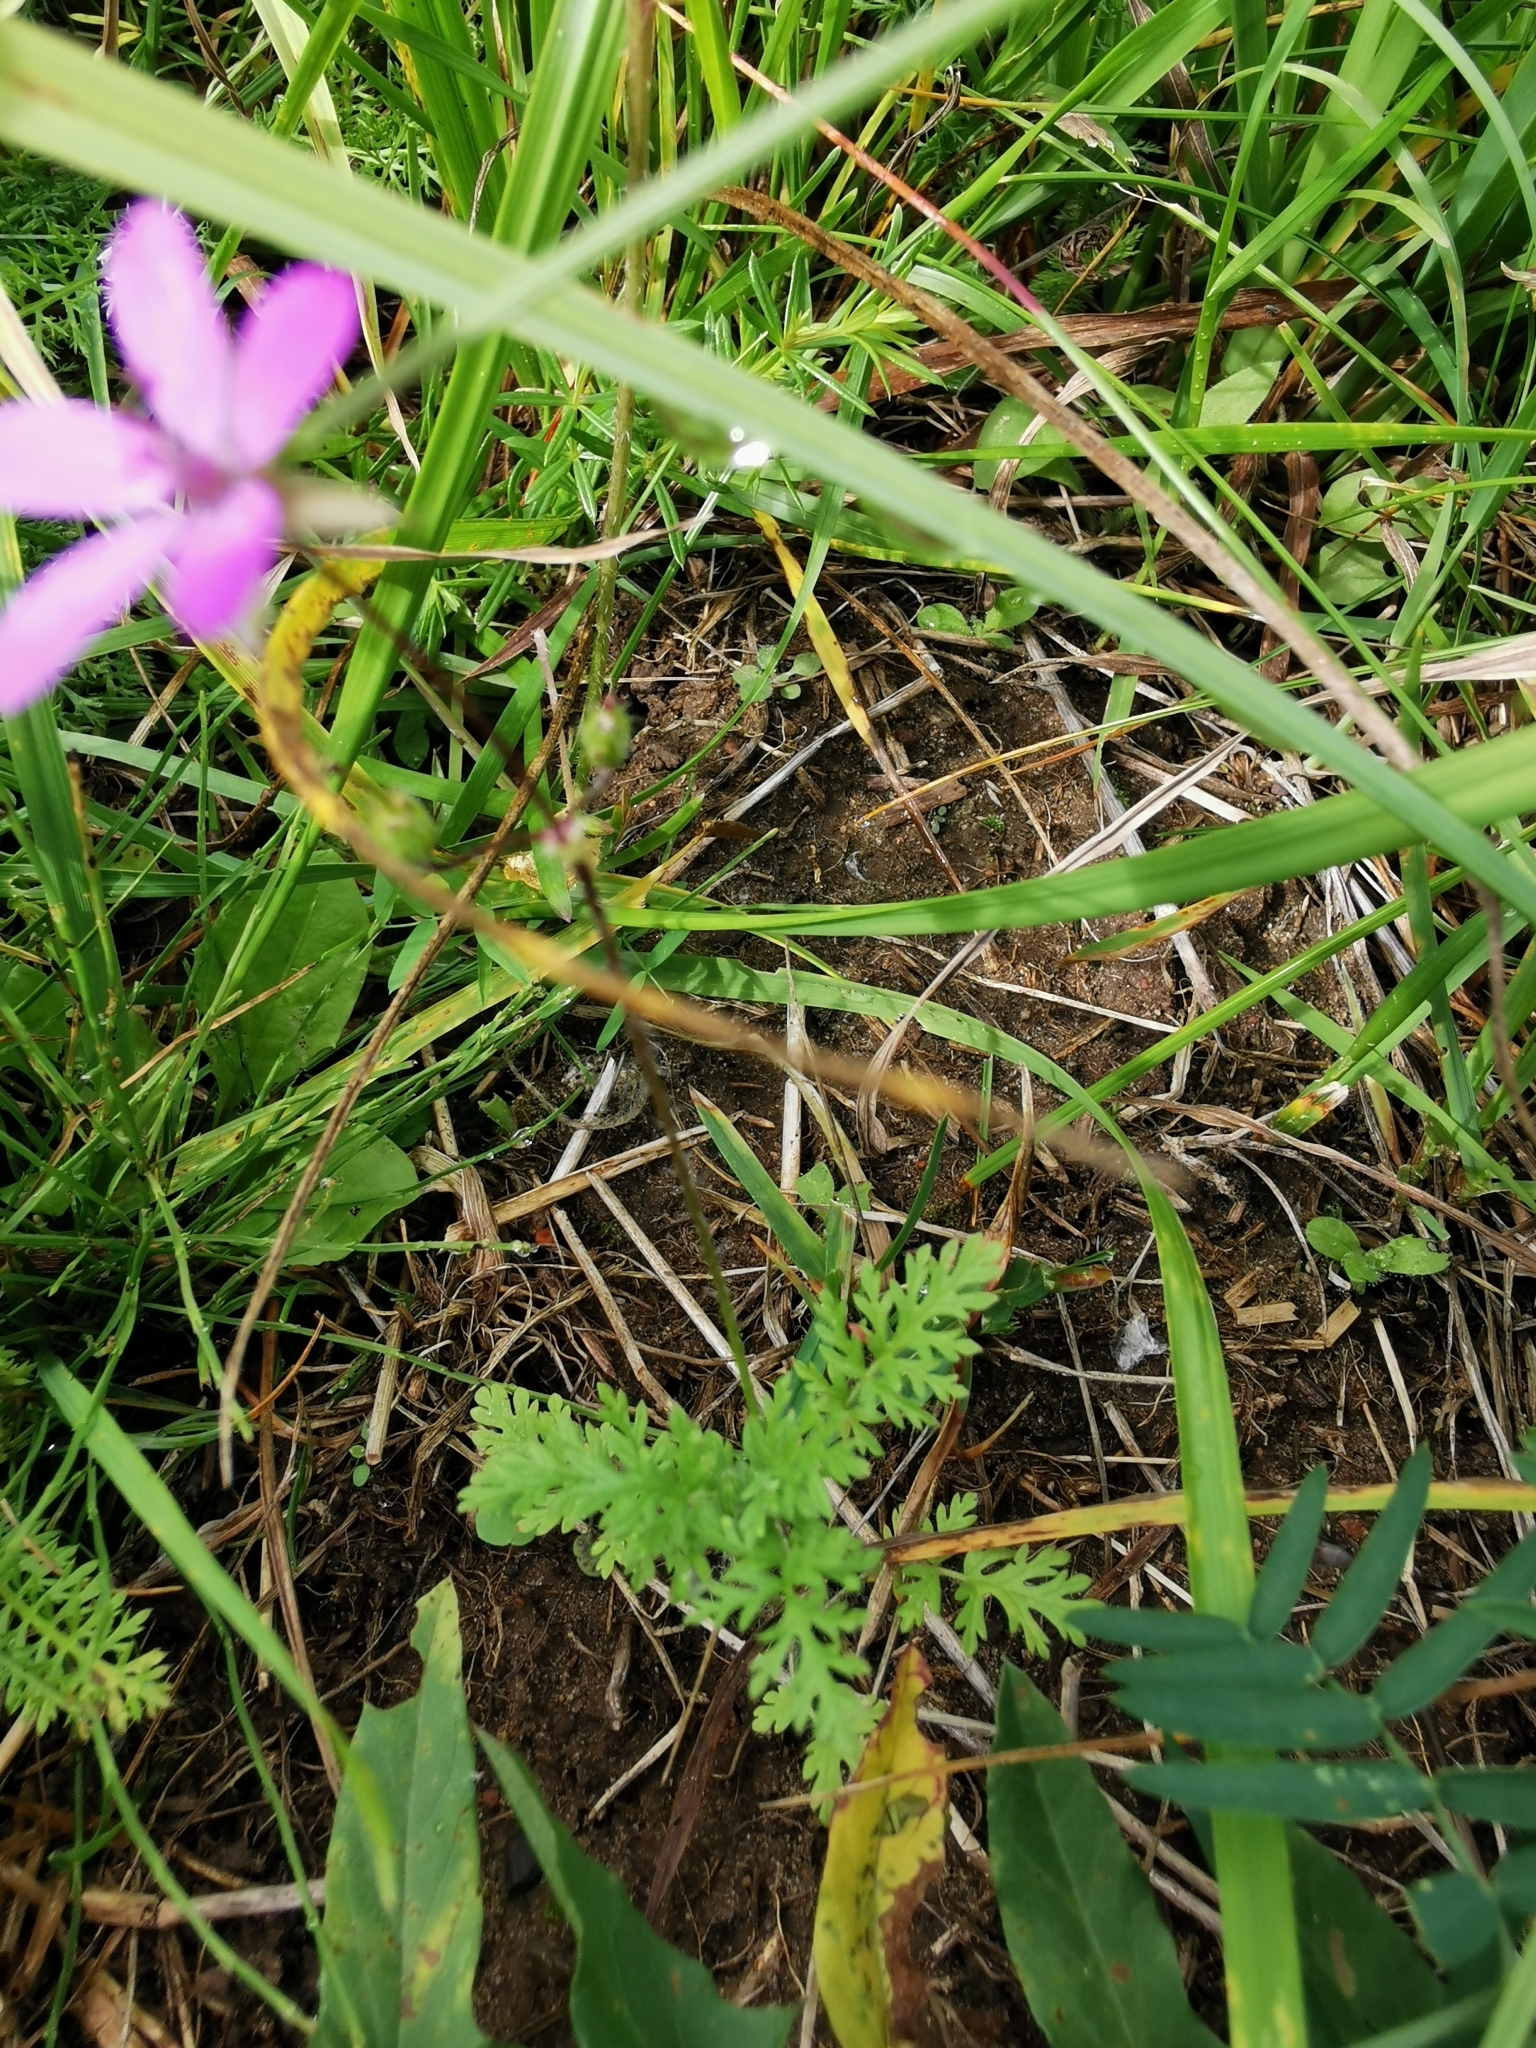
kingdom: Plantae
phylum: Tracheophyta
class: Magnoliopsida
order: Geraniales
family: Geraniaceae
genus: Erodium
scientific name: Erodium cicutarium
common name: Common stork's-bill
